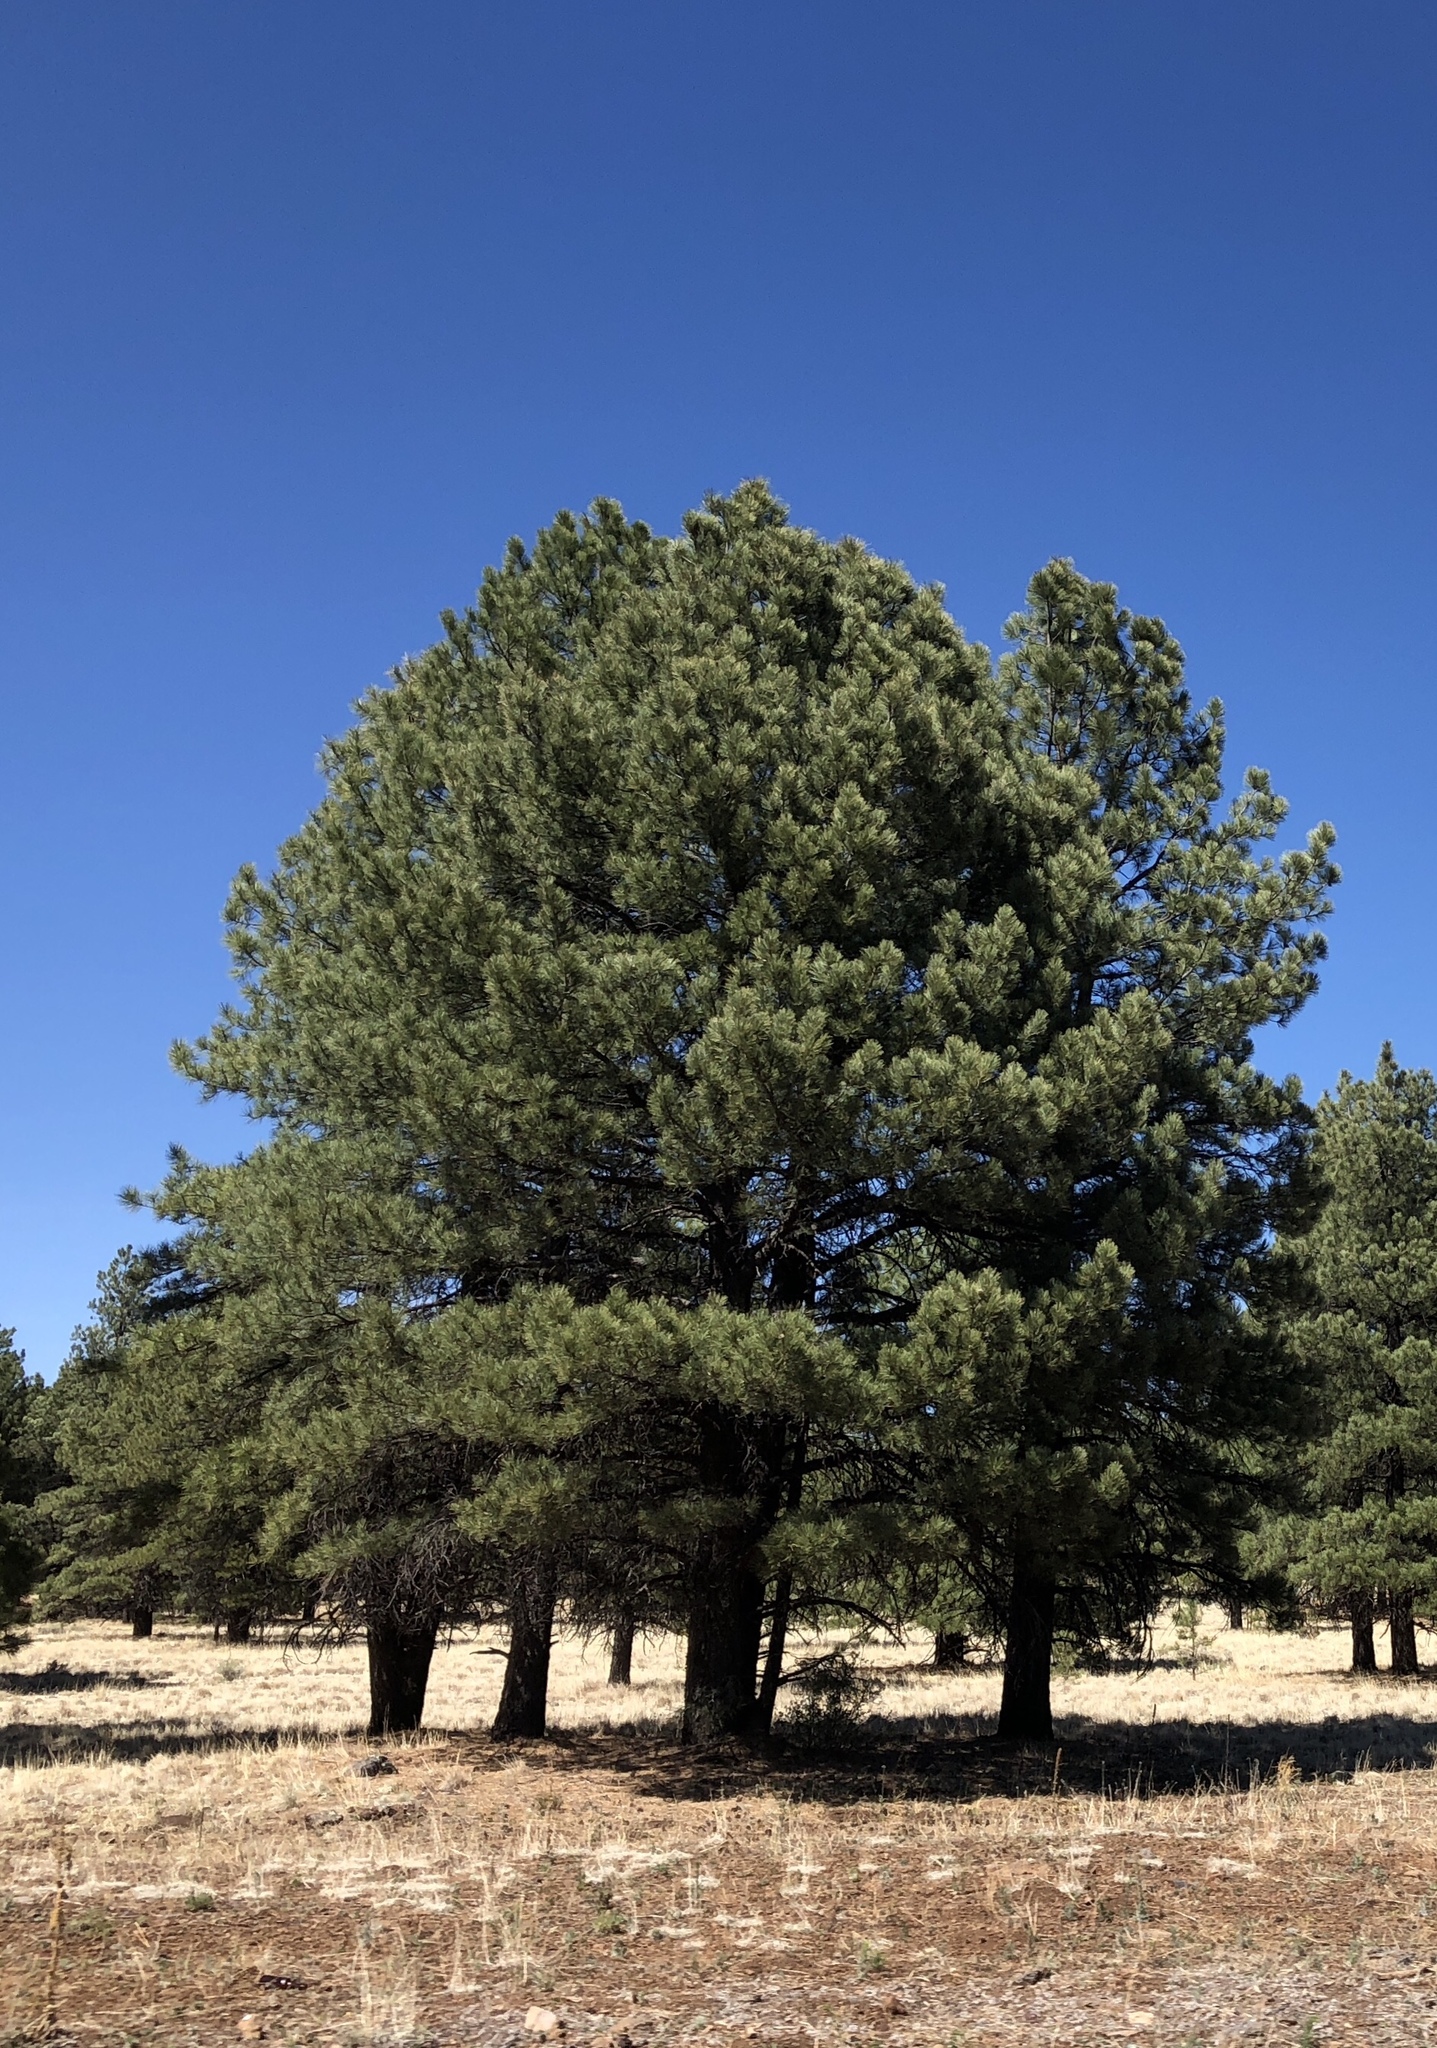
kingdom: Plantae
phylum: Tracheophyta
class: Pinopsida
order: Pinales
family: Pinaceae
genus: Pinus
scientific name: Pinus ponderosa
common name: Western yellow-pine
